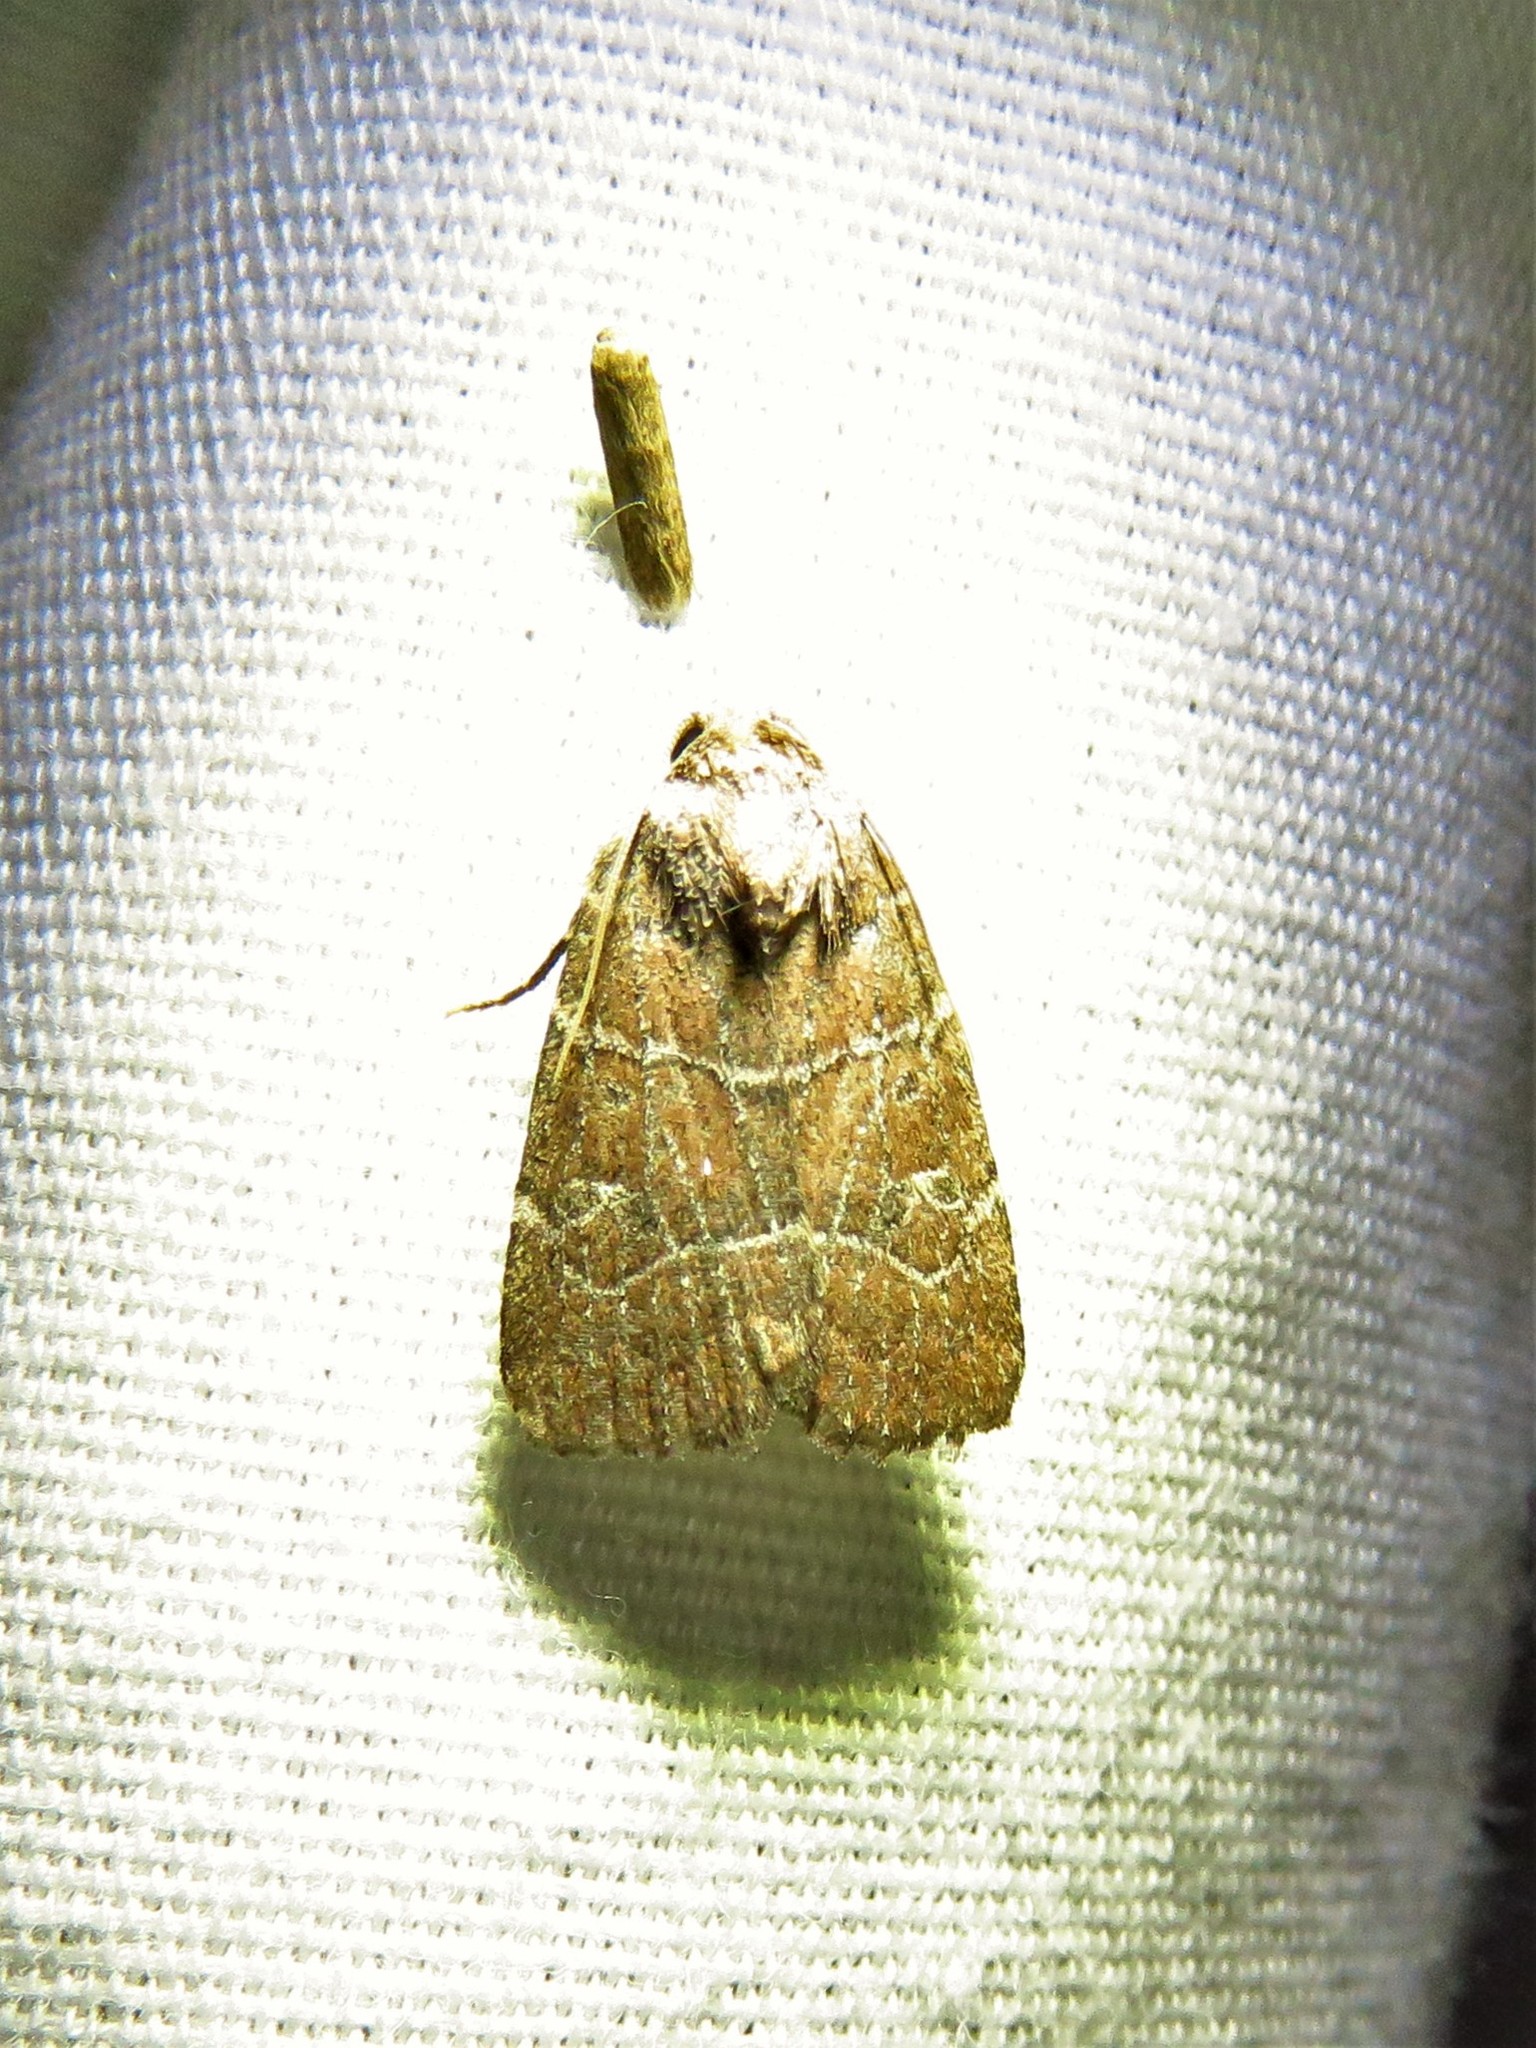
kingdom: Animalia
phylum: Arthropoda
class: Insecta
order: Lepidoptera
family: Noctuidae
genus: Elaphria
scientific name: Elaphria grata
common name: Grateful midget moth
